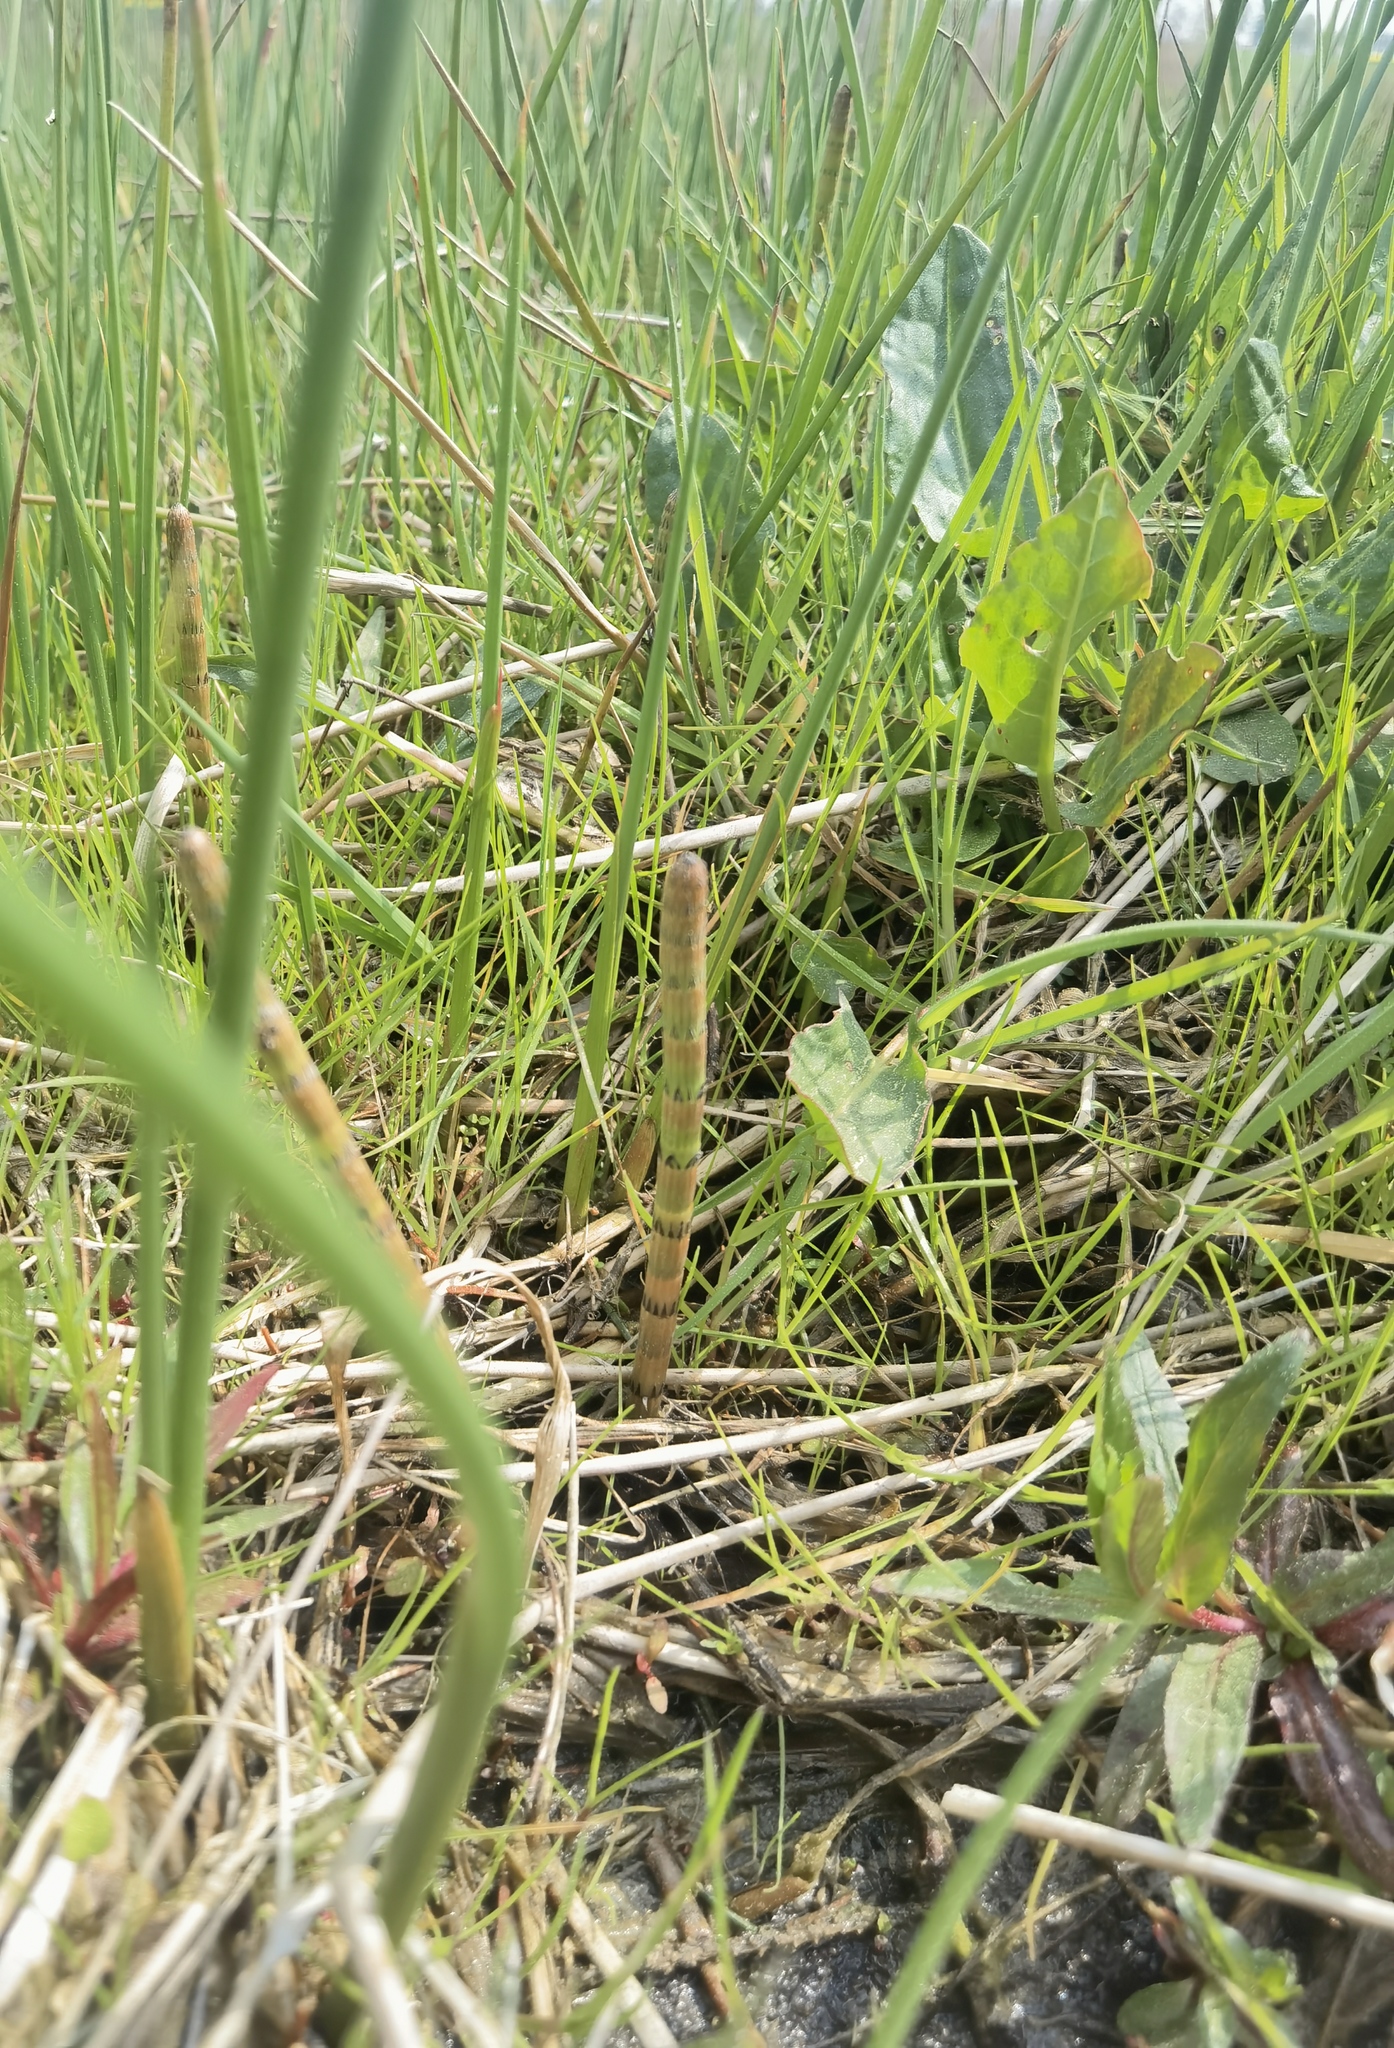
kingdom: Plantae
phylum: Tracheophyta
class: Polypodiopsida
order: Equisetales
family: Equisetaceae
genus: Equisetum
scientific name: Equisetum fluviatile
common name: Water horsetail
